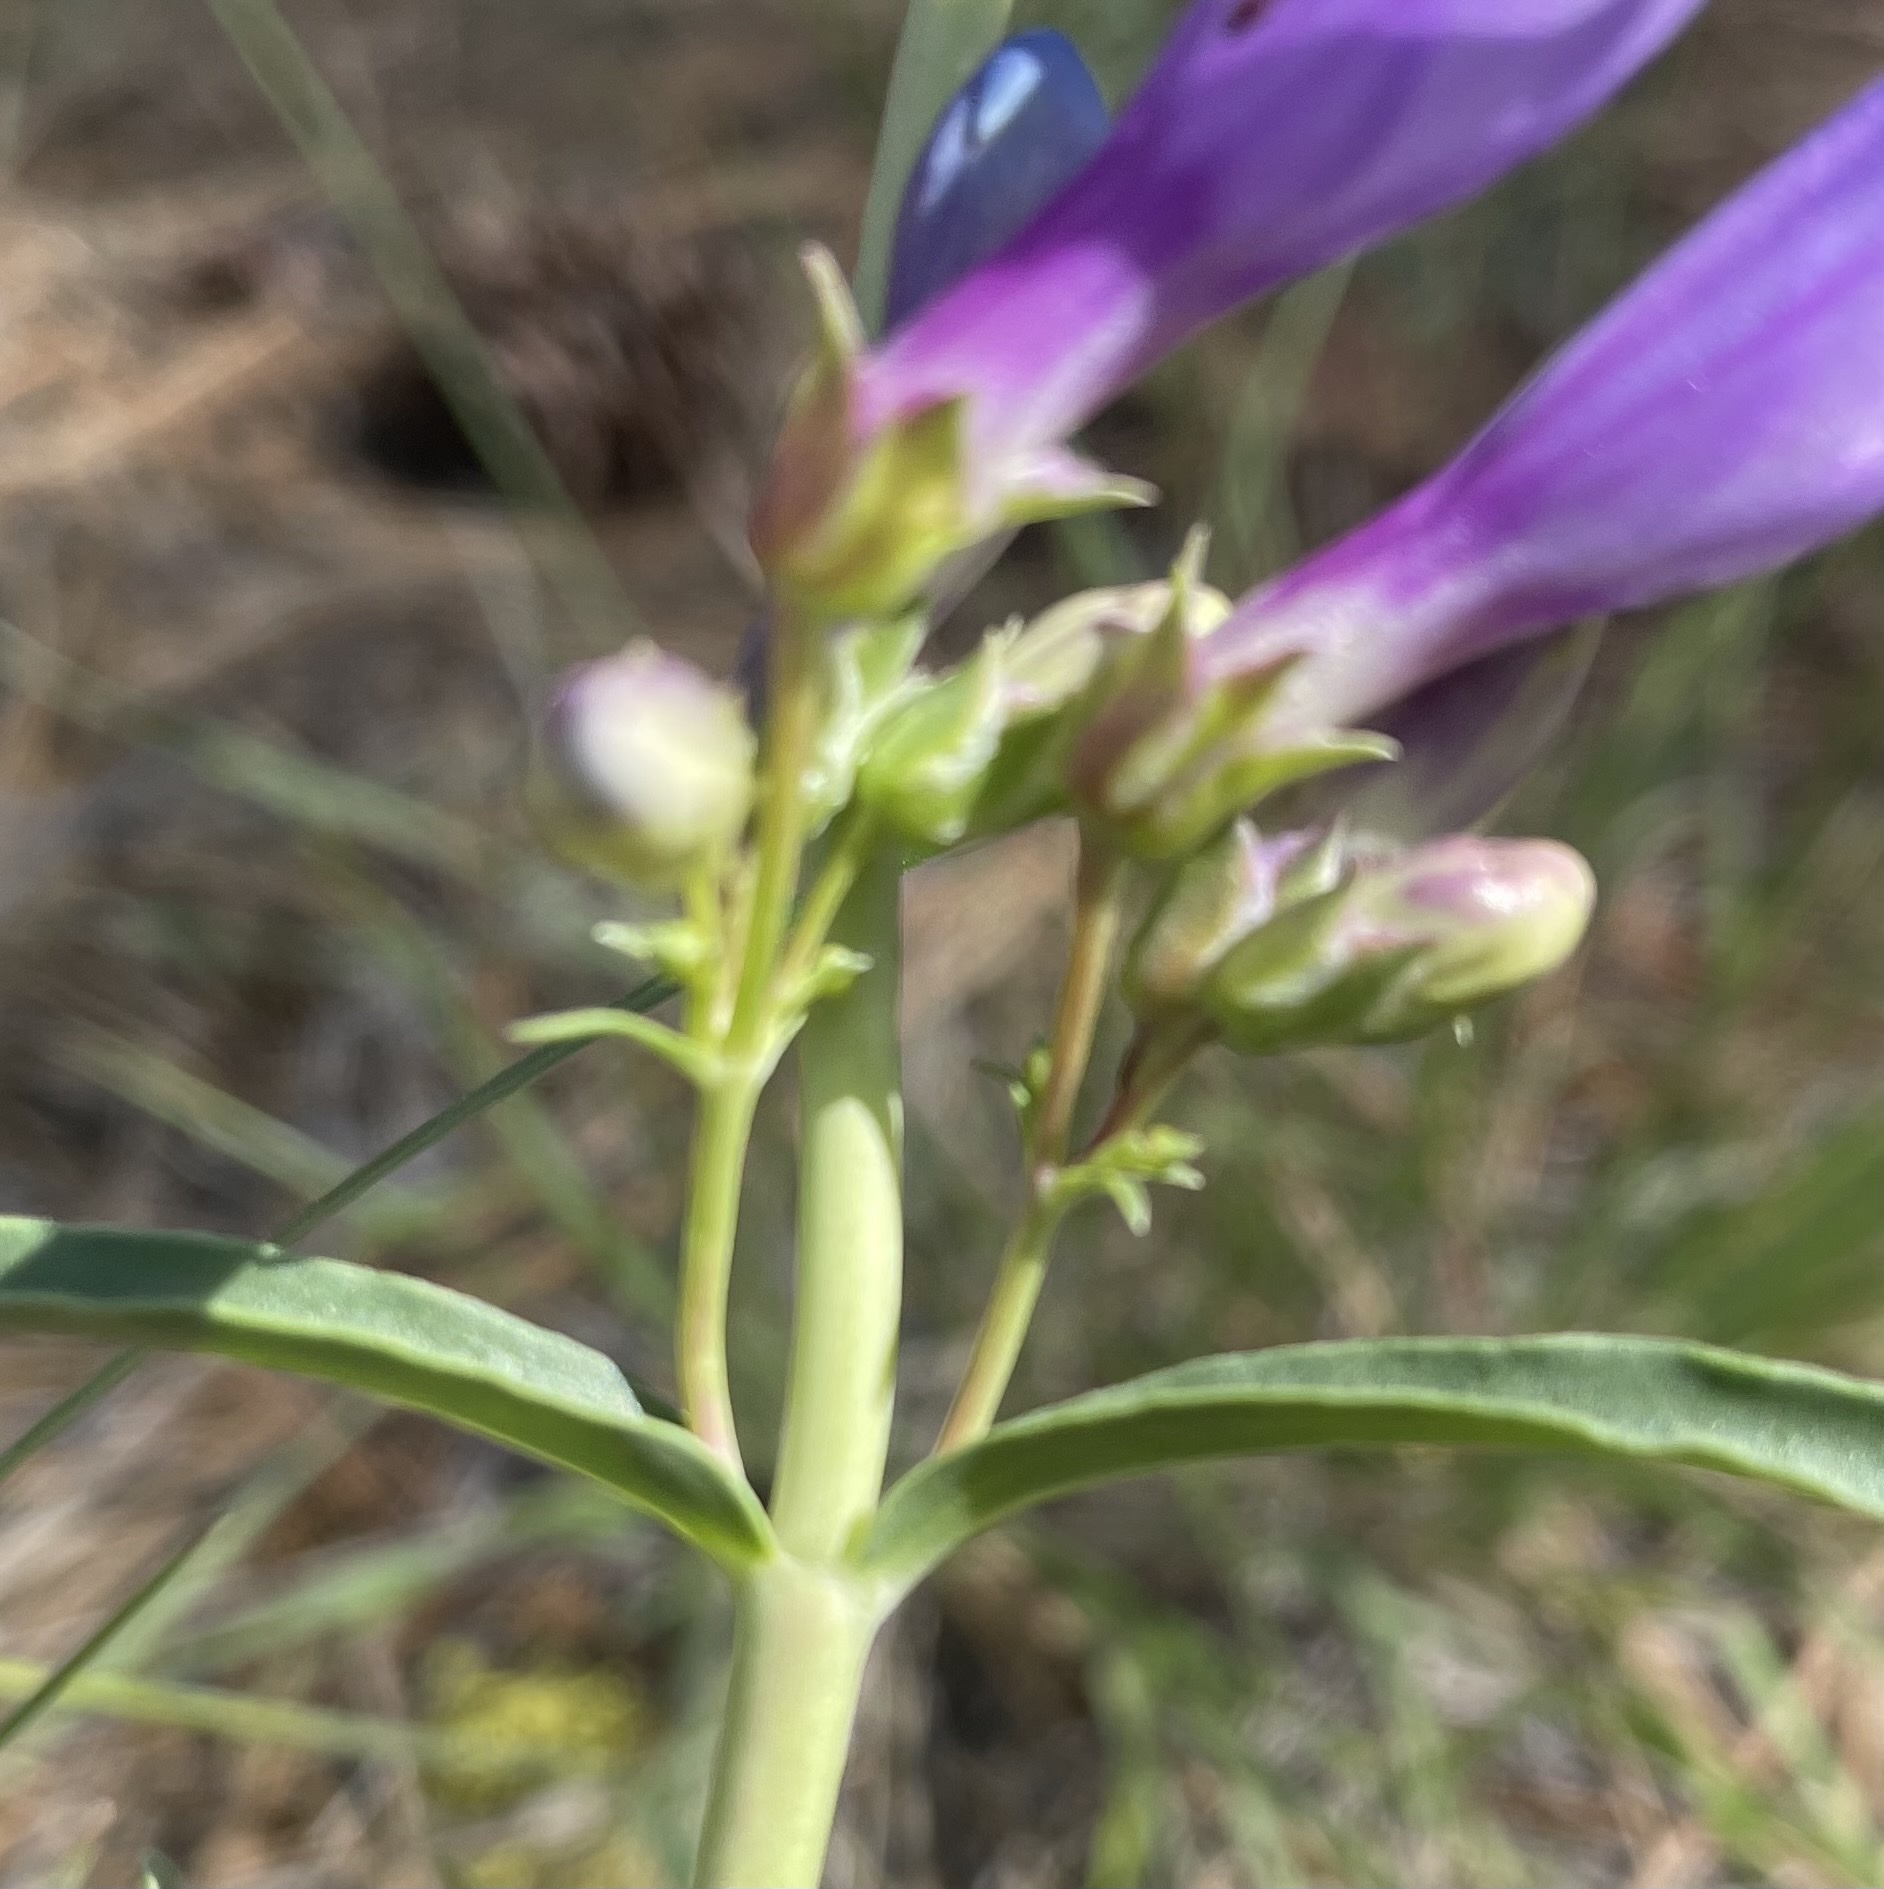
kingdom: Plantae
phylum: Tracheophyta
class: Magnoliopsida
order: Lamiales
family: Plantaginaceae
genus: Penstemon
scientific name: Penstemon speciosus
